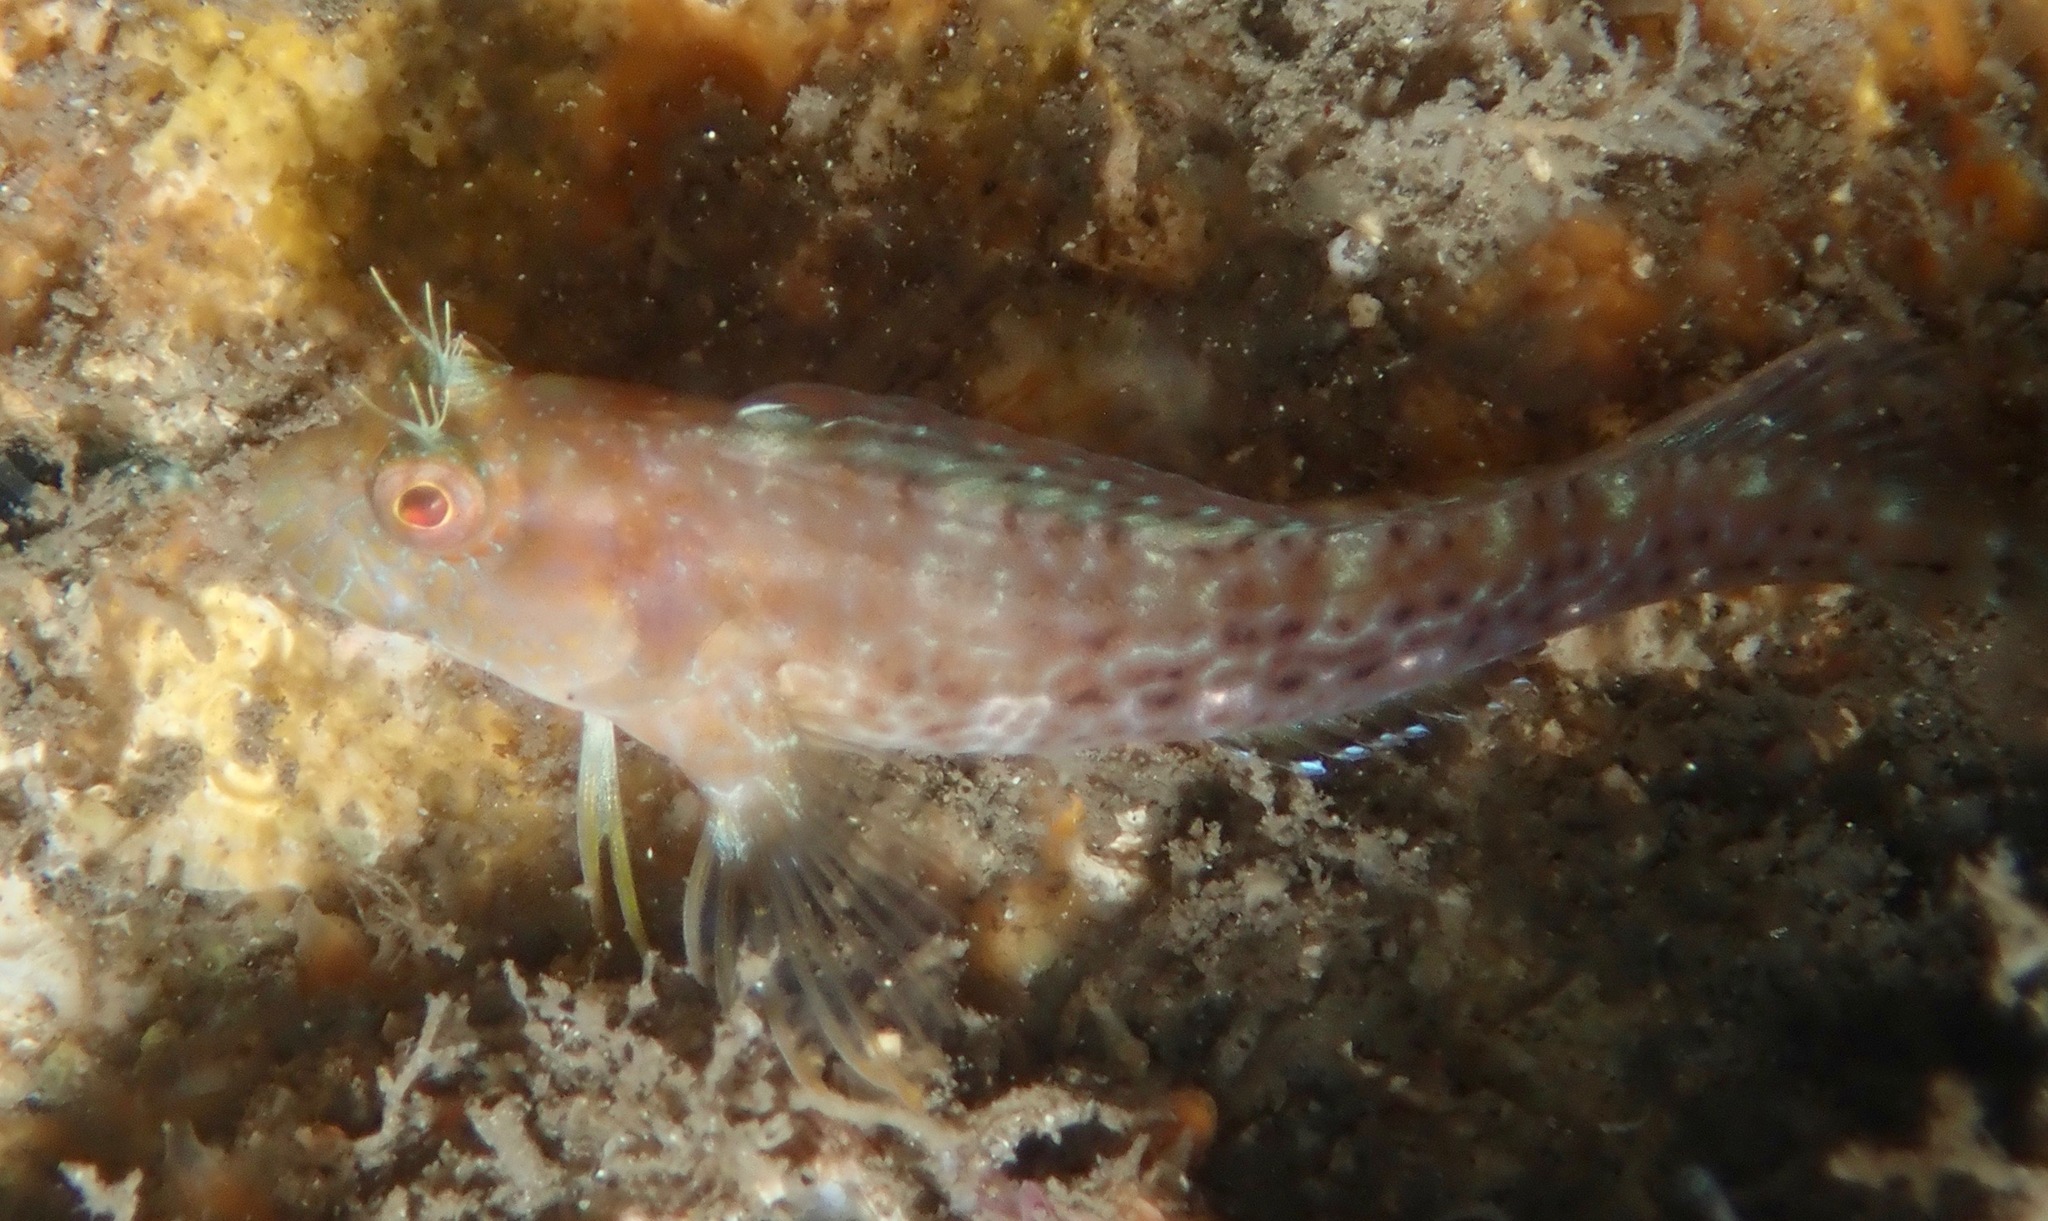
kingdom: Animalia
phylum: Chordata
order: Perciformes
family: Blenniidae
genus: Parablennius
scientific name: Parablennius marmoreus
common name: Seaweed blenny
